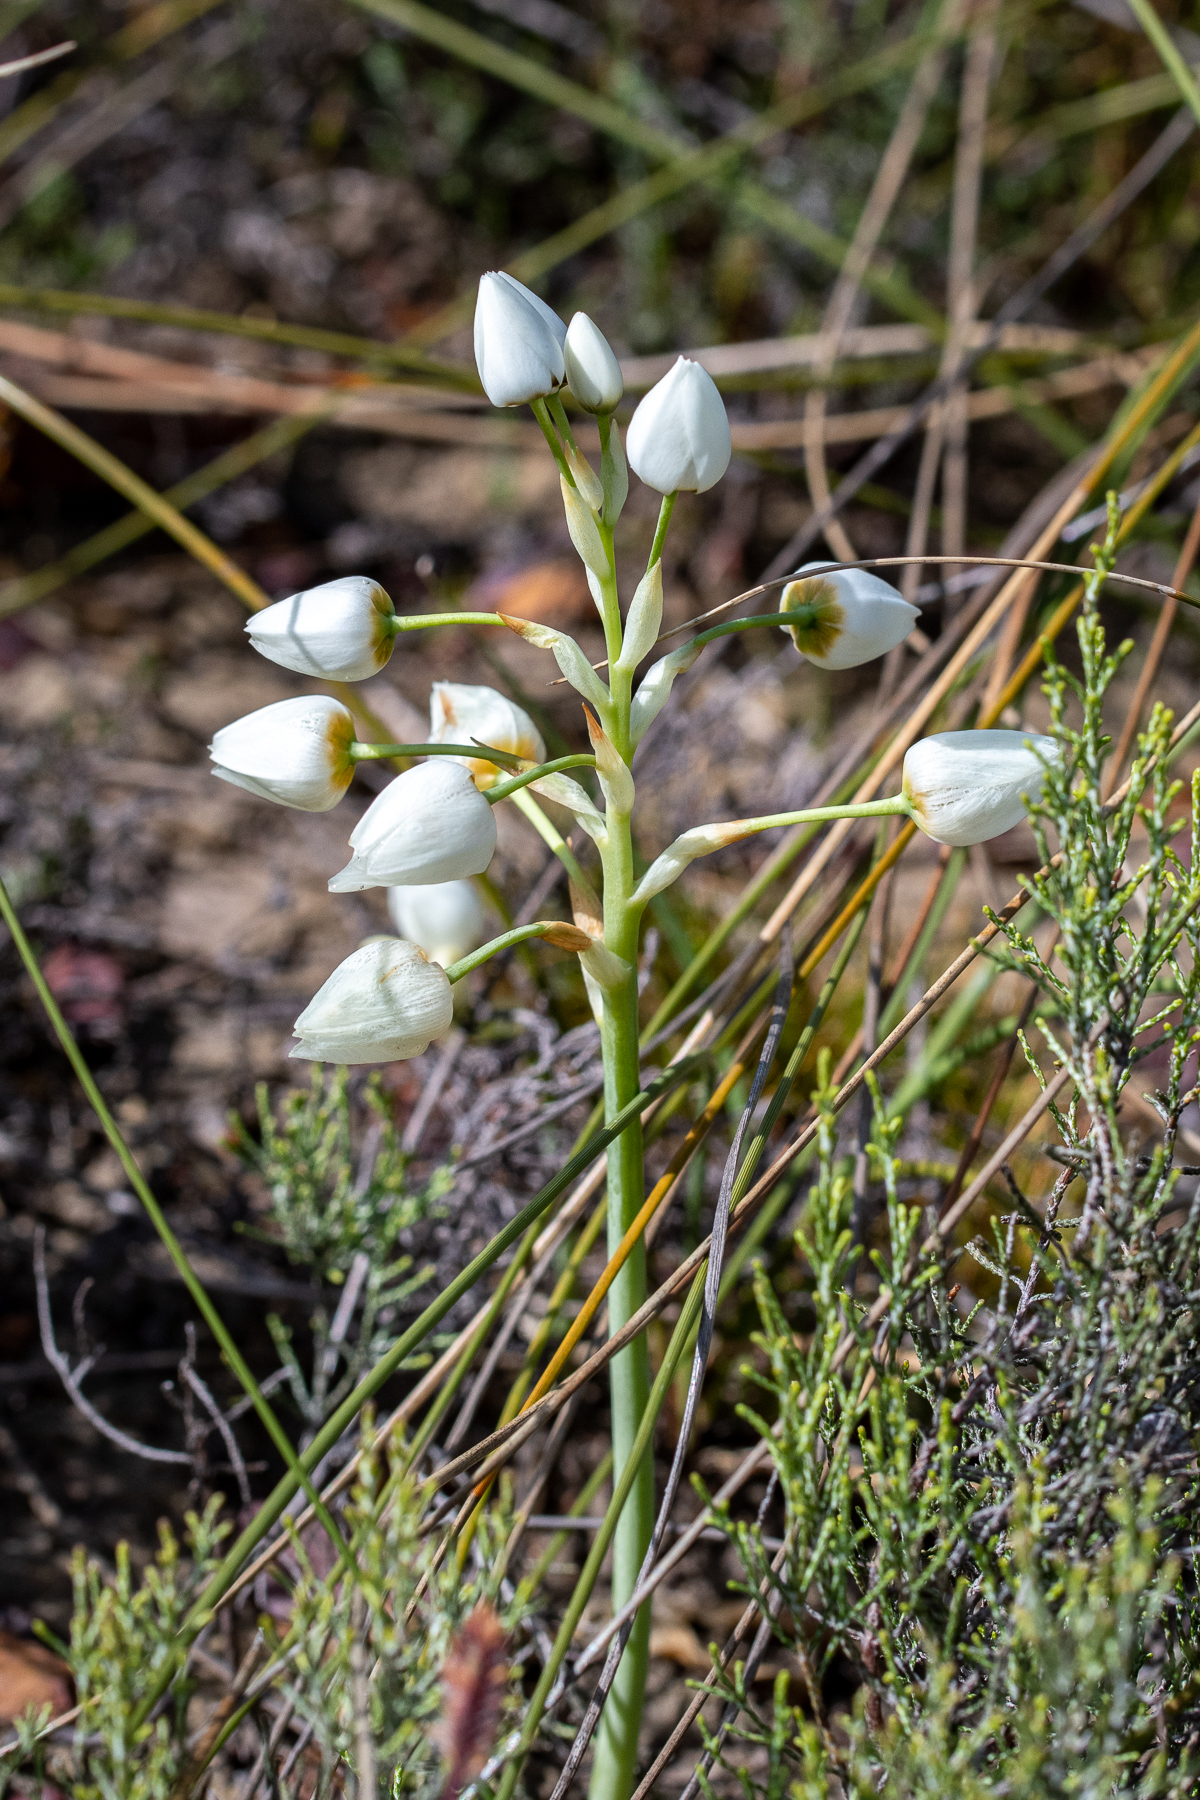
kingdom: Plantae
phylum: Tracheophyta
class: Liliopsida
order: Asparagales
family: Asparagaceae
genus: Ornithogalum
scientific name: Ornithogalum thyrsoides
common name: Chincherinchee
